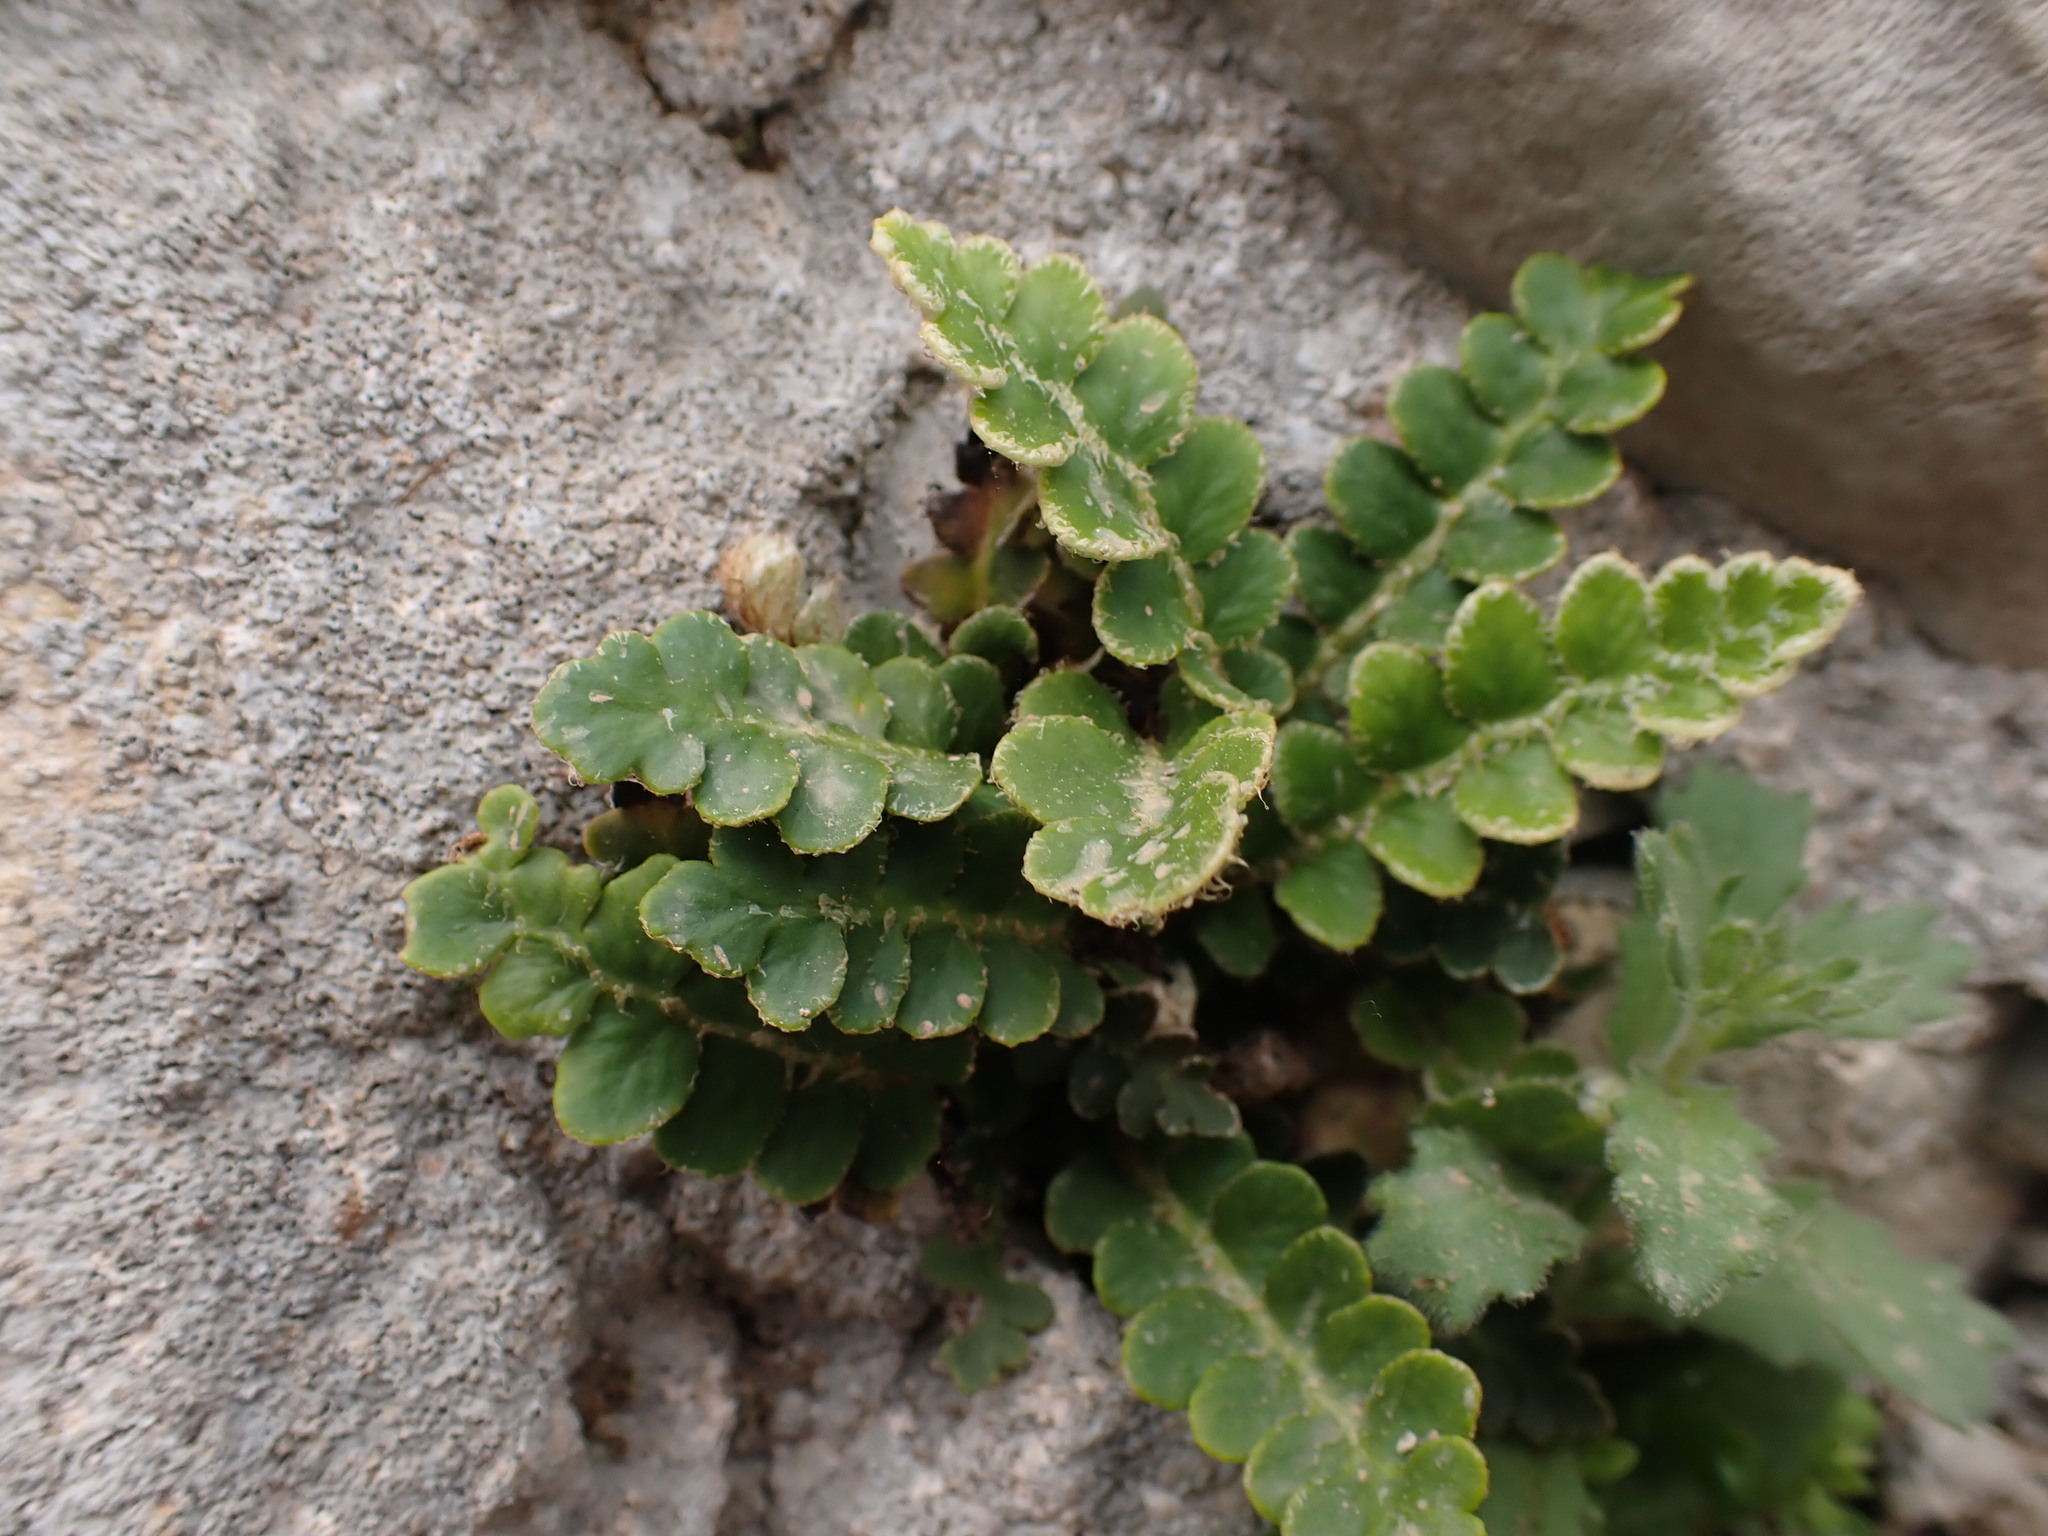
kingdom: Plantae
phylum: Tracheophyta
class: Polypodiopsida
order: Polypodiales
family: Aspleniaceae
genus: Asplenium
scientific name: Asplenium ceterach
